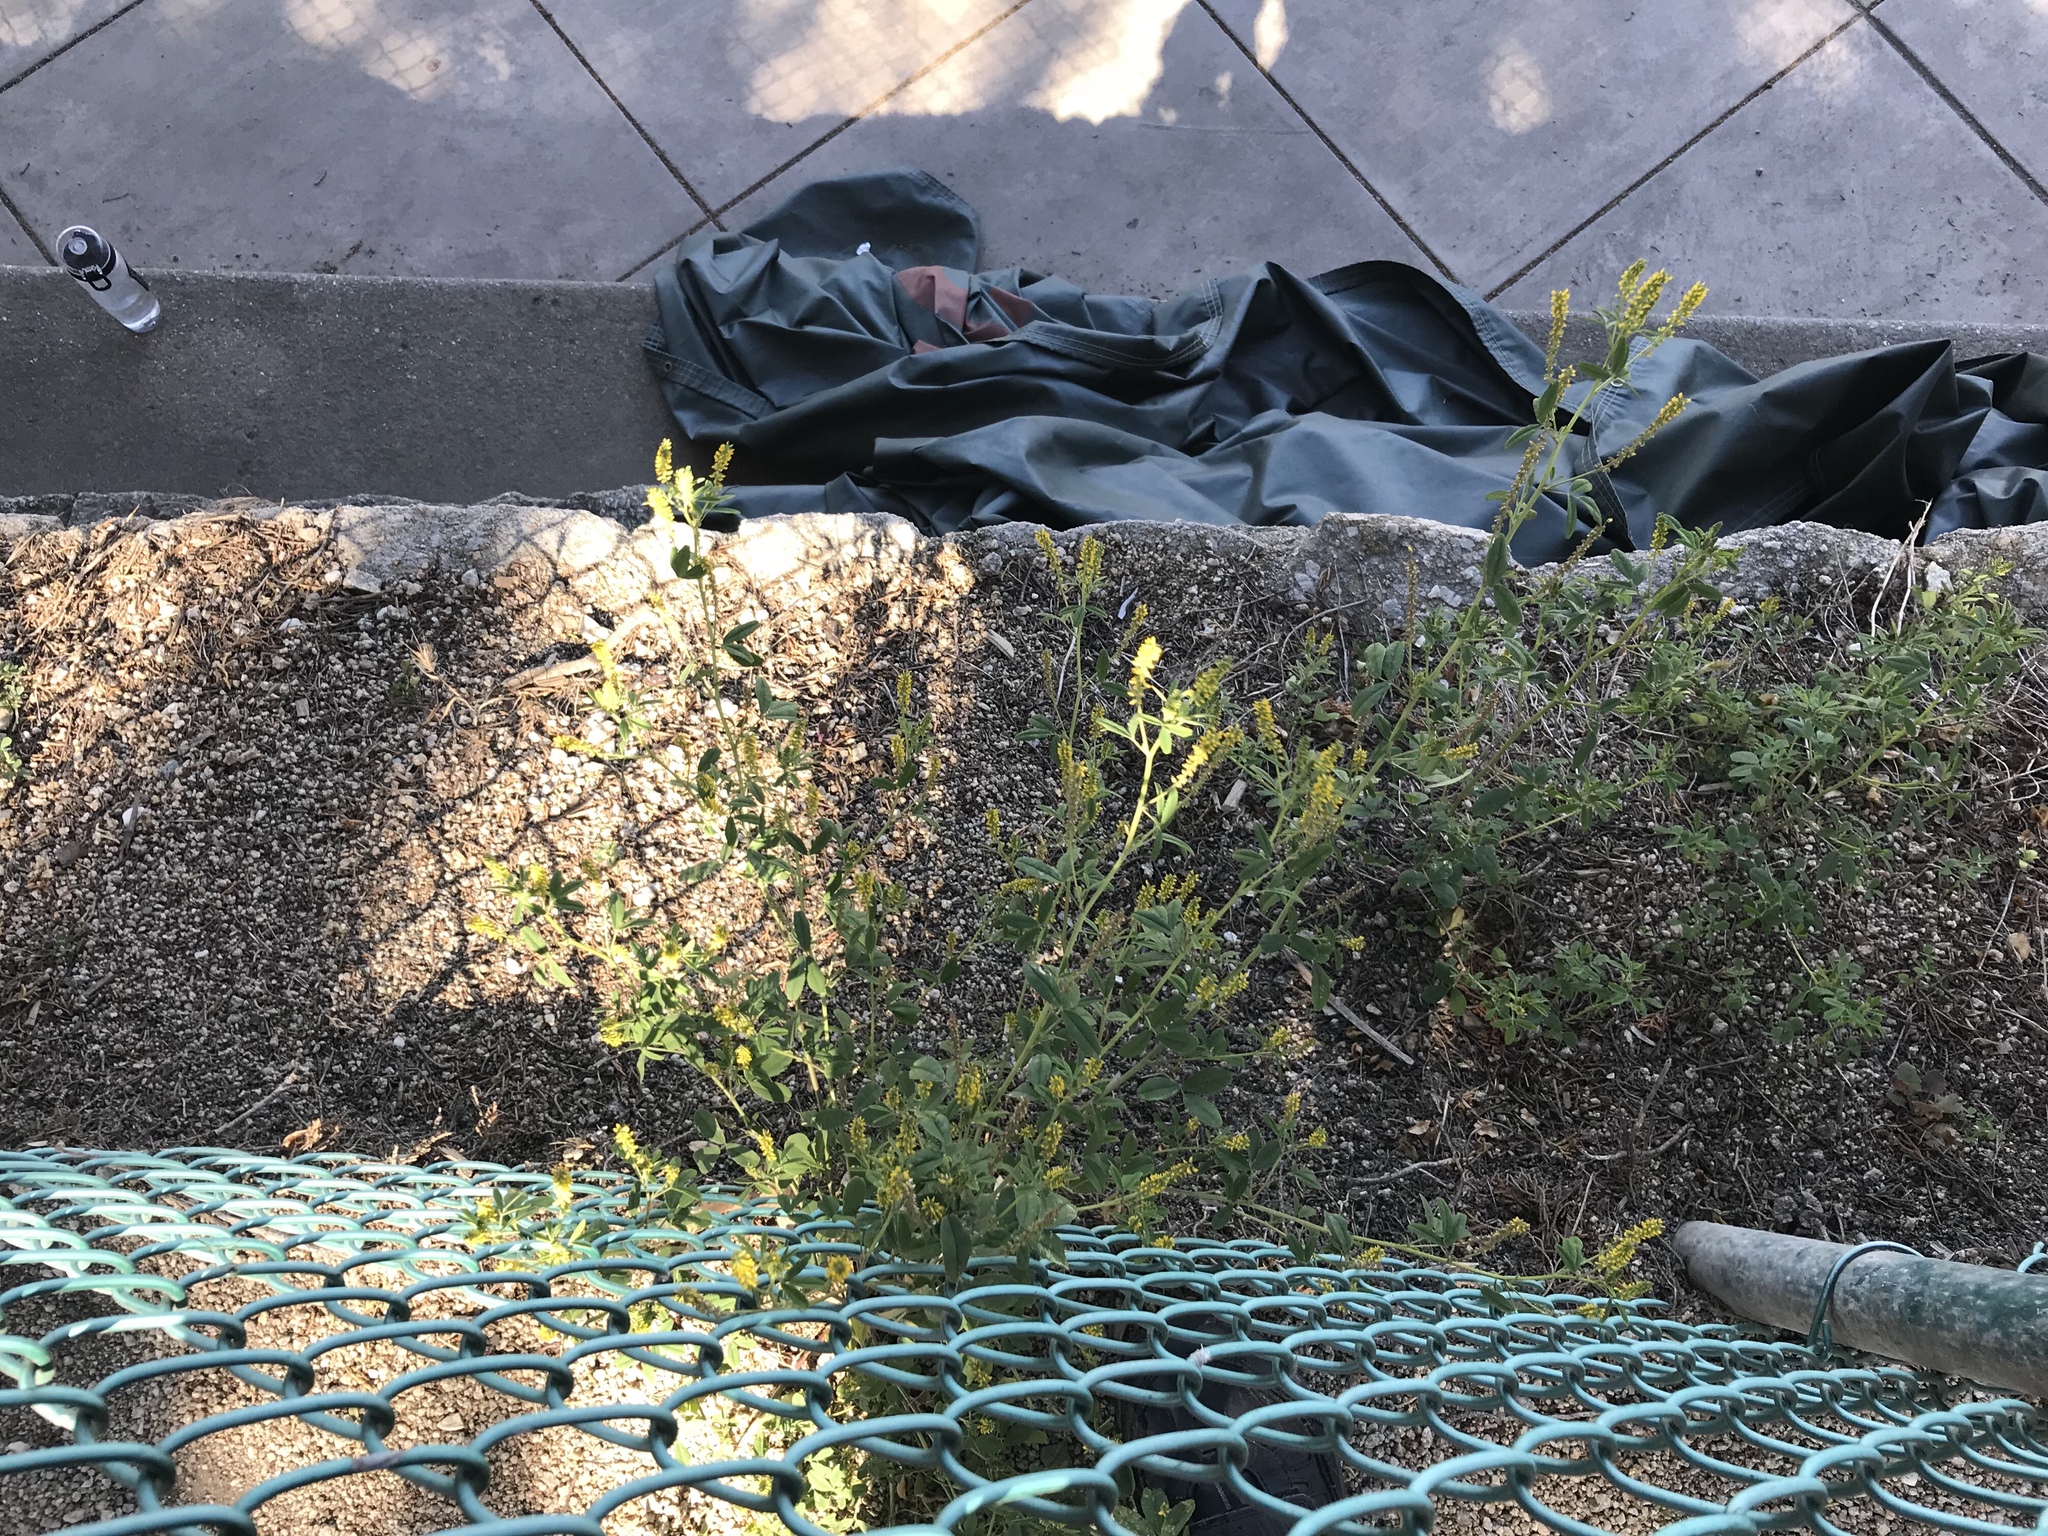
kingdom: Plantae
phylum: Tracheophyta
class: Magnoliopsida
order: Fabales
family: Fabaceae
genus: Melilotus
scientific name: Melilotus indicus
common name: Small melilot
